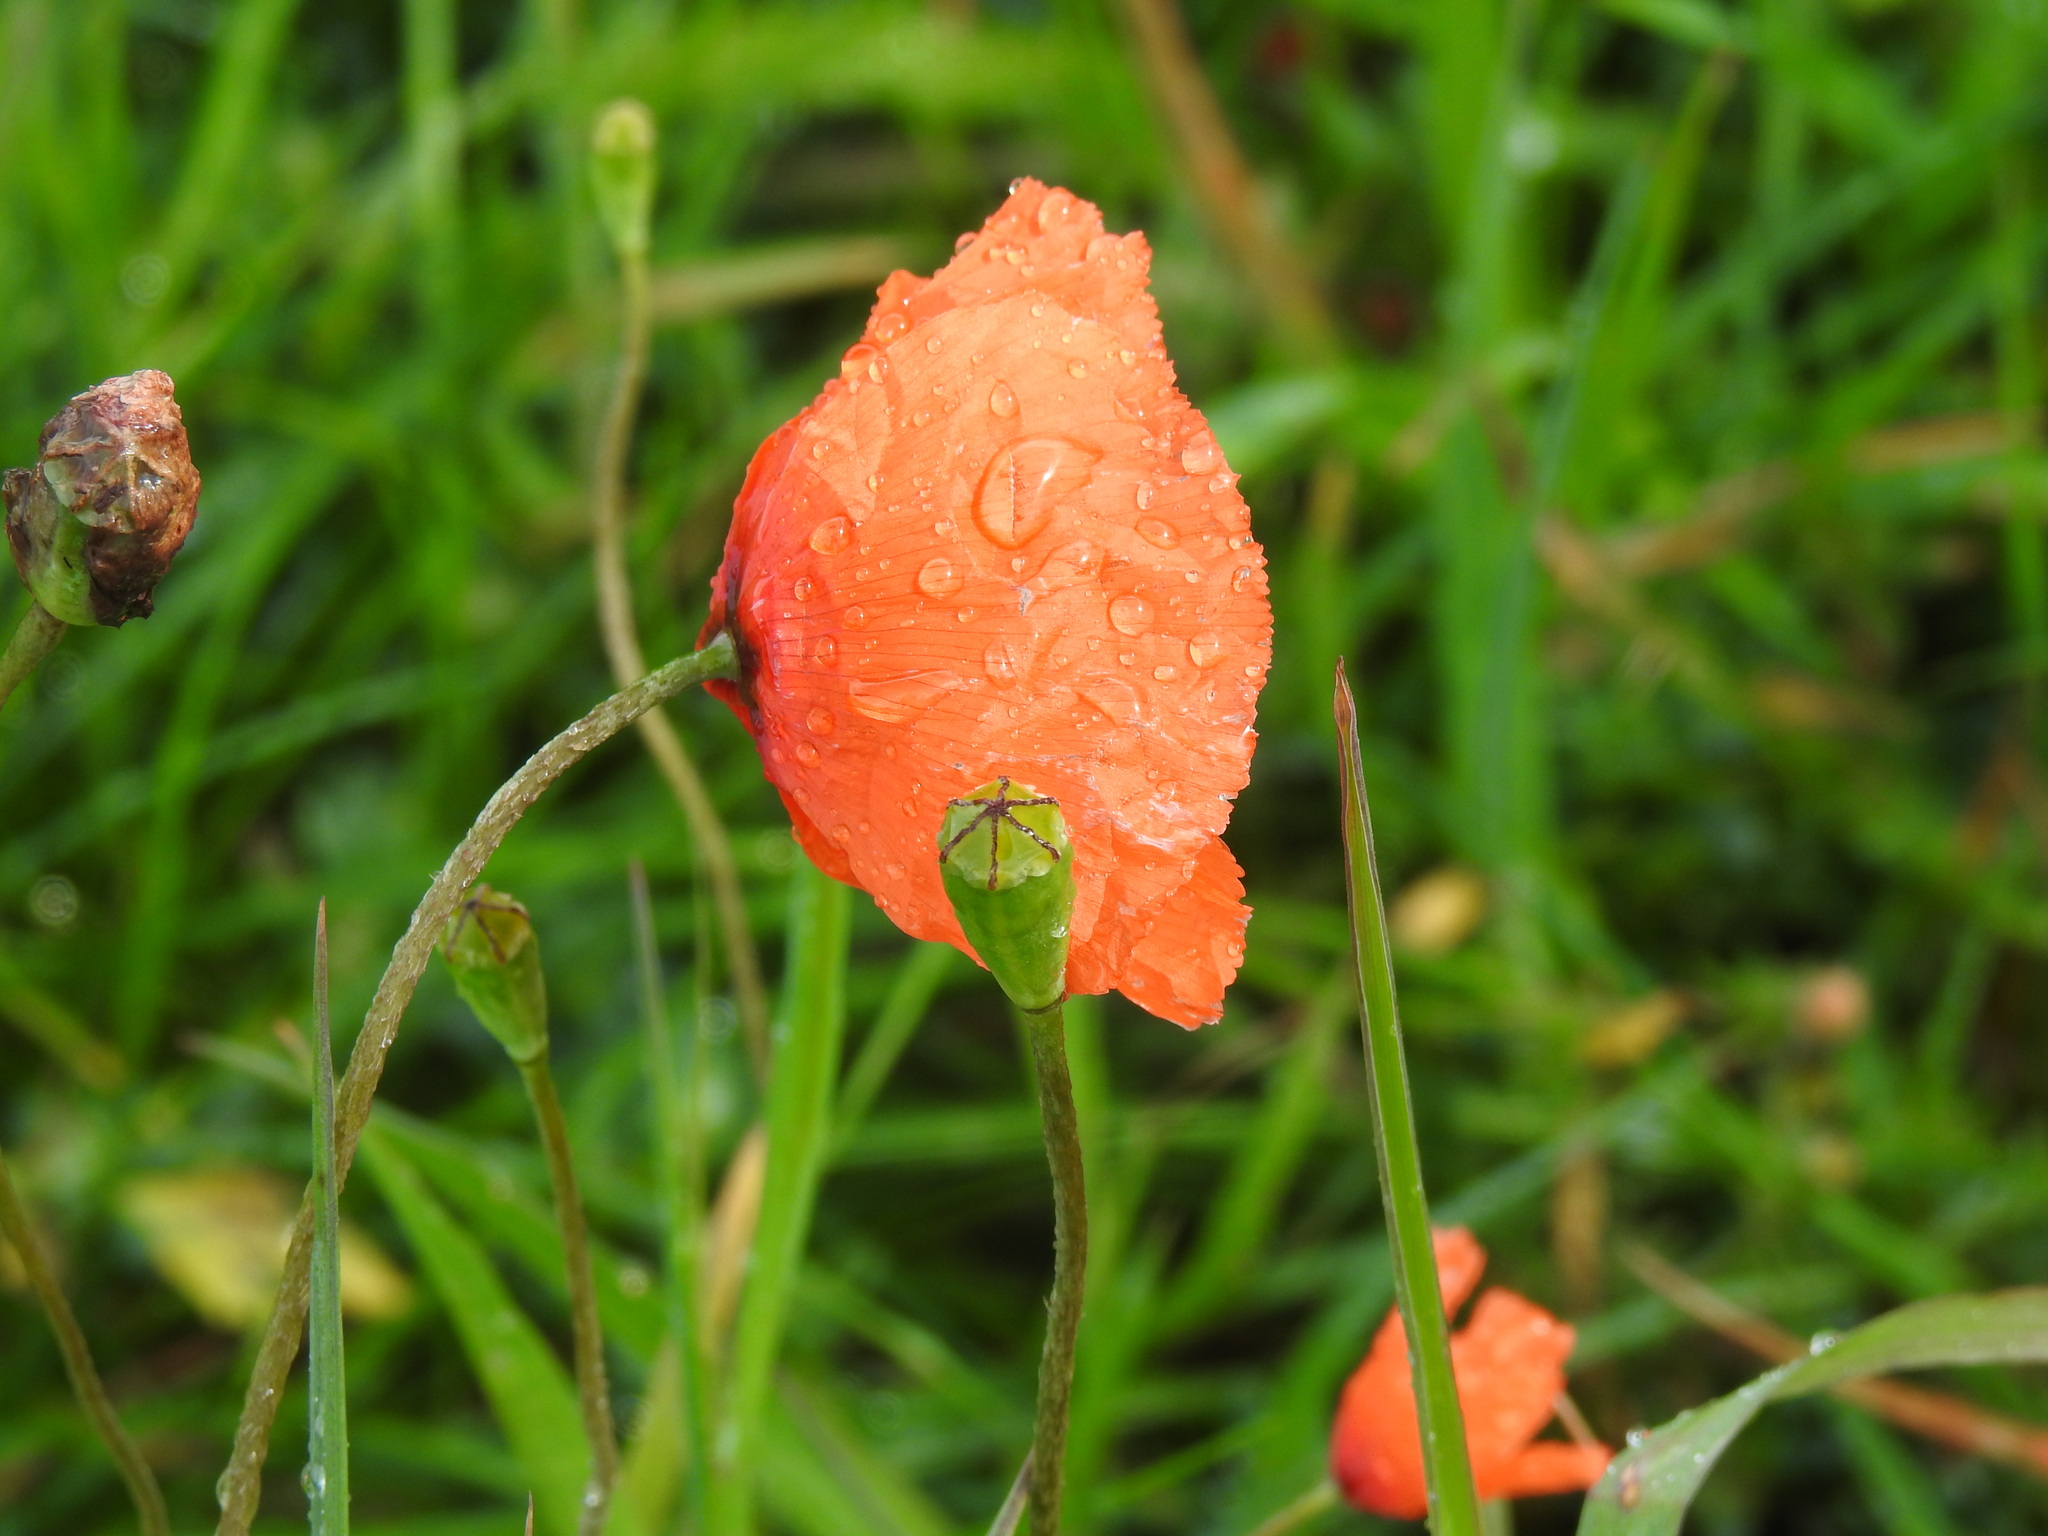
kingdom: Plantae
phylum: Tracheophyta
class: Magnoliopsida
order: Ranunculales
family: Papaveraceae
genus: Papaver
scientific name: Papaver dubium
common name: Long-headed poppy
